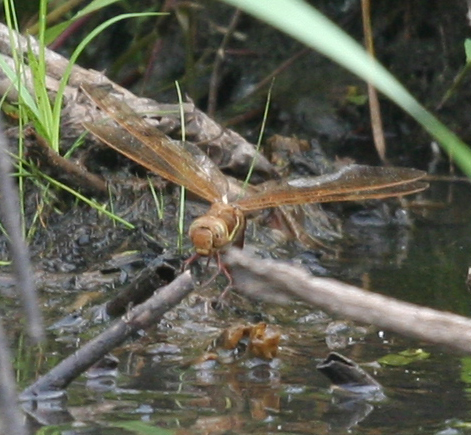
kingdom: Animalia
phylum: Arthropoda
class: Insecta
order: Odonata
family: Aeshnidae
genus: Aeshna
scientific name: Aeshna grandis
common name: Brown hawker
